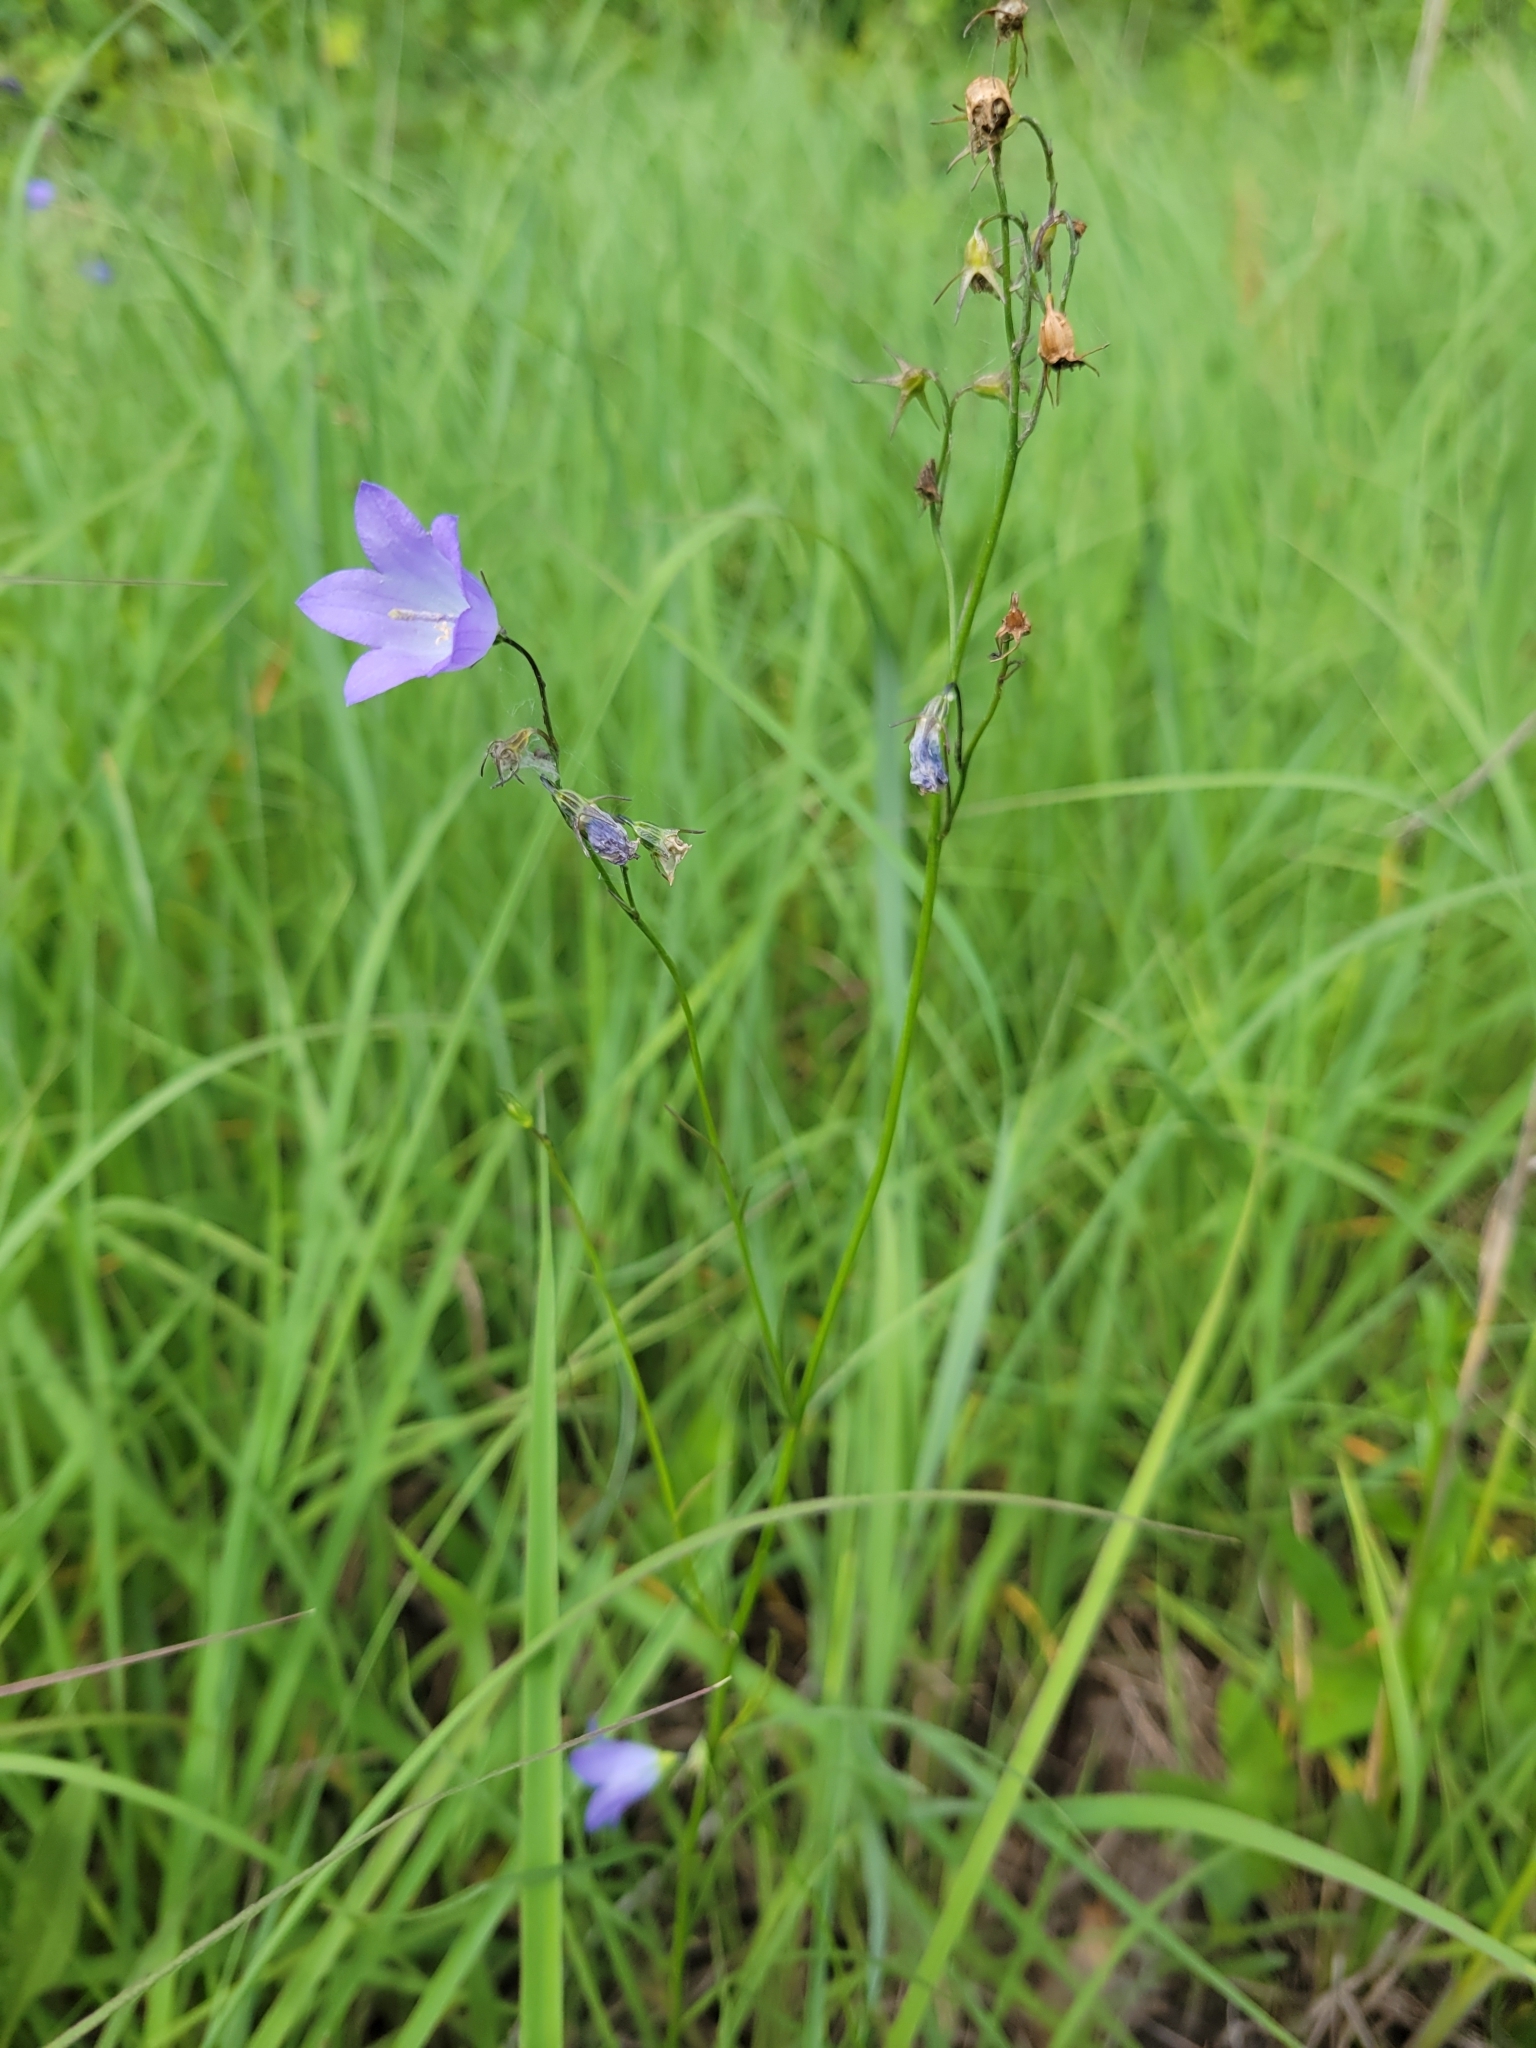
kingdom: Plantae
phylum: Tracheophyta
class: Magnoliopsida
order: Asterales
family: Campanulaceae
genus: Campanula
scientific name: Campanula intercedens
